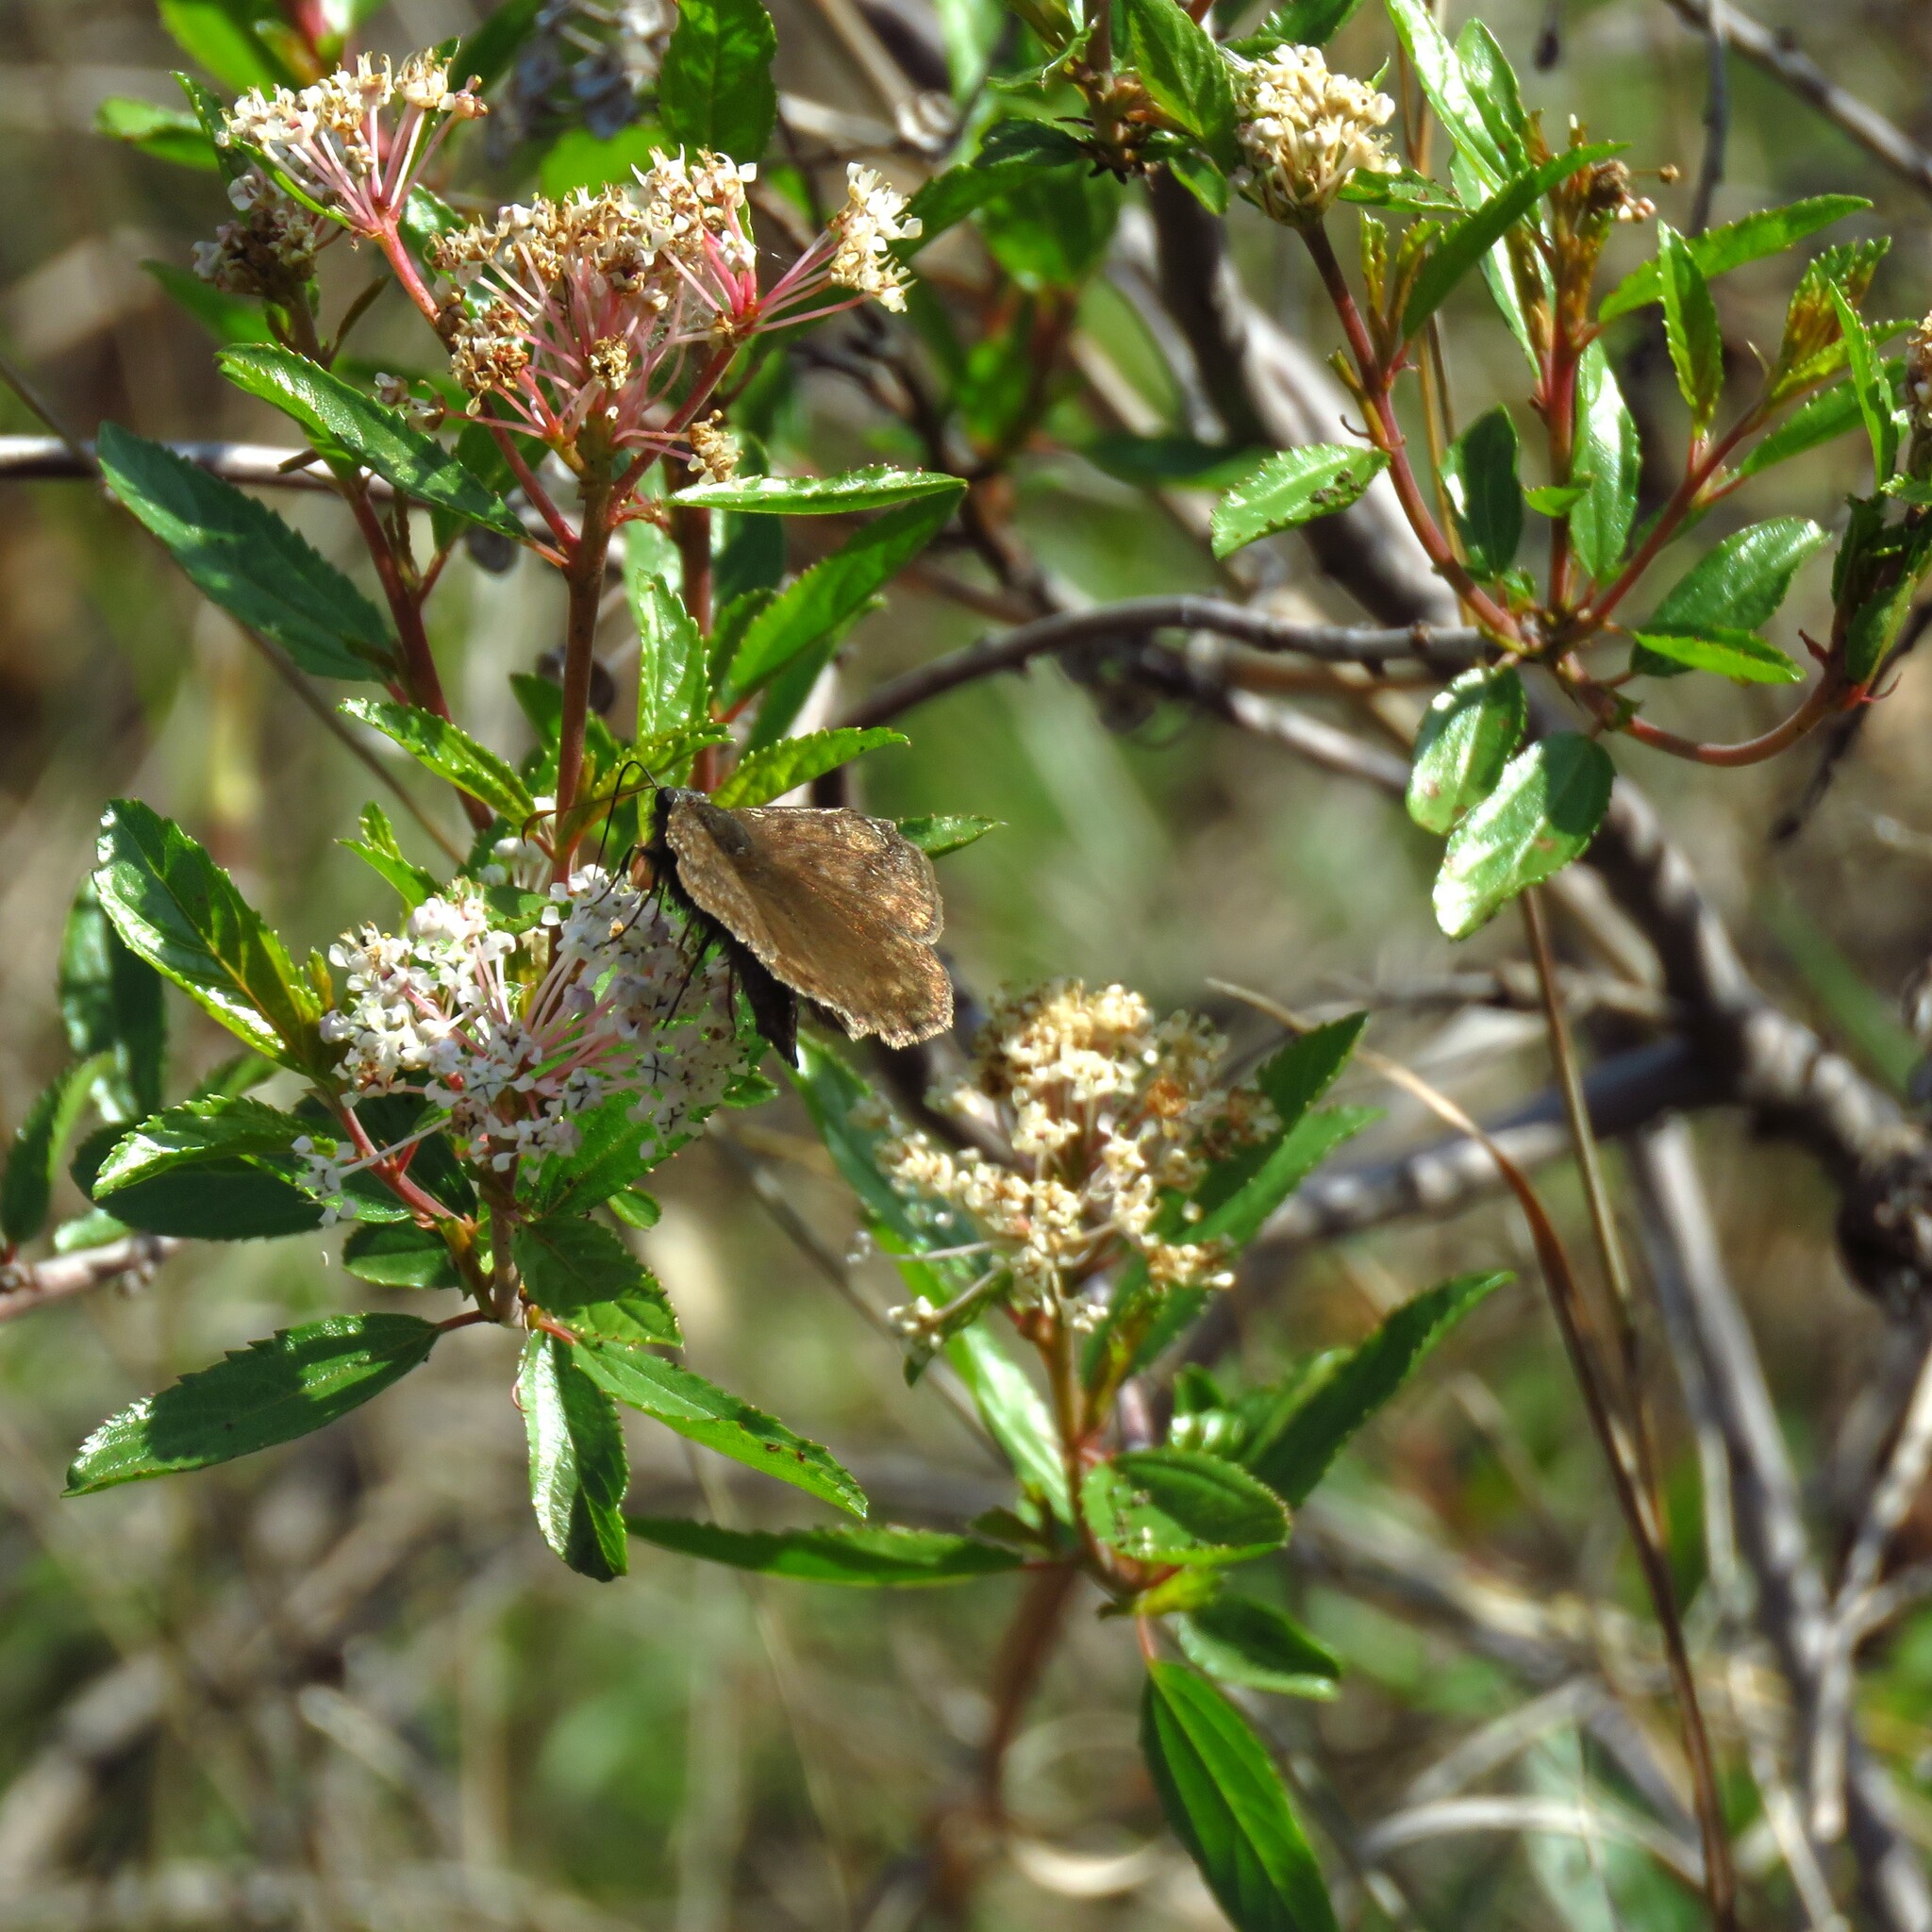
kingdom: Plantae
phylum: Tracheophyta
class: Magnoliopsida
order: Rosales
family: Rhamnaceae
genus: Ceanothus
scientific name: Ceanothus herbaceus
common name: Inland ceanothus
